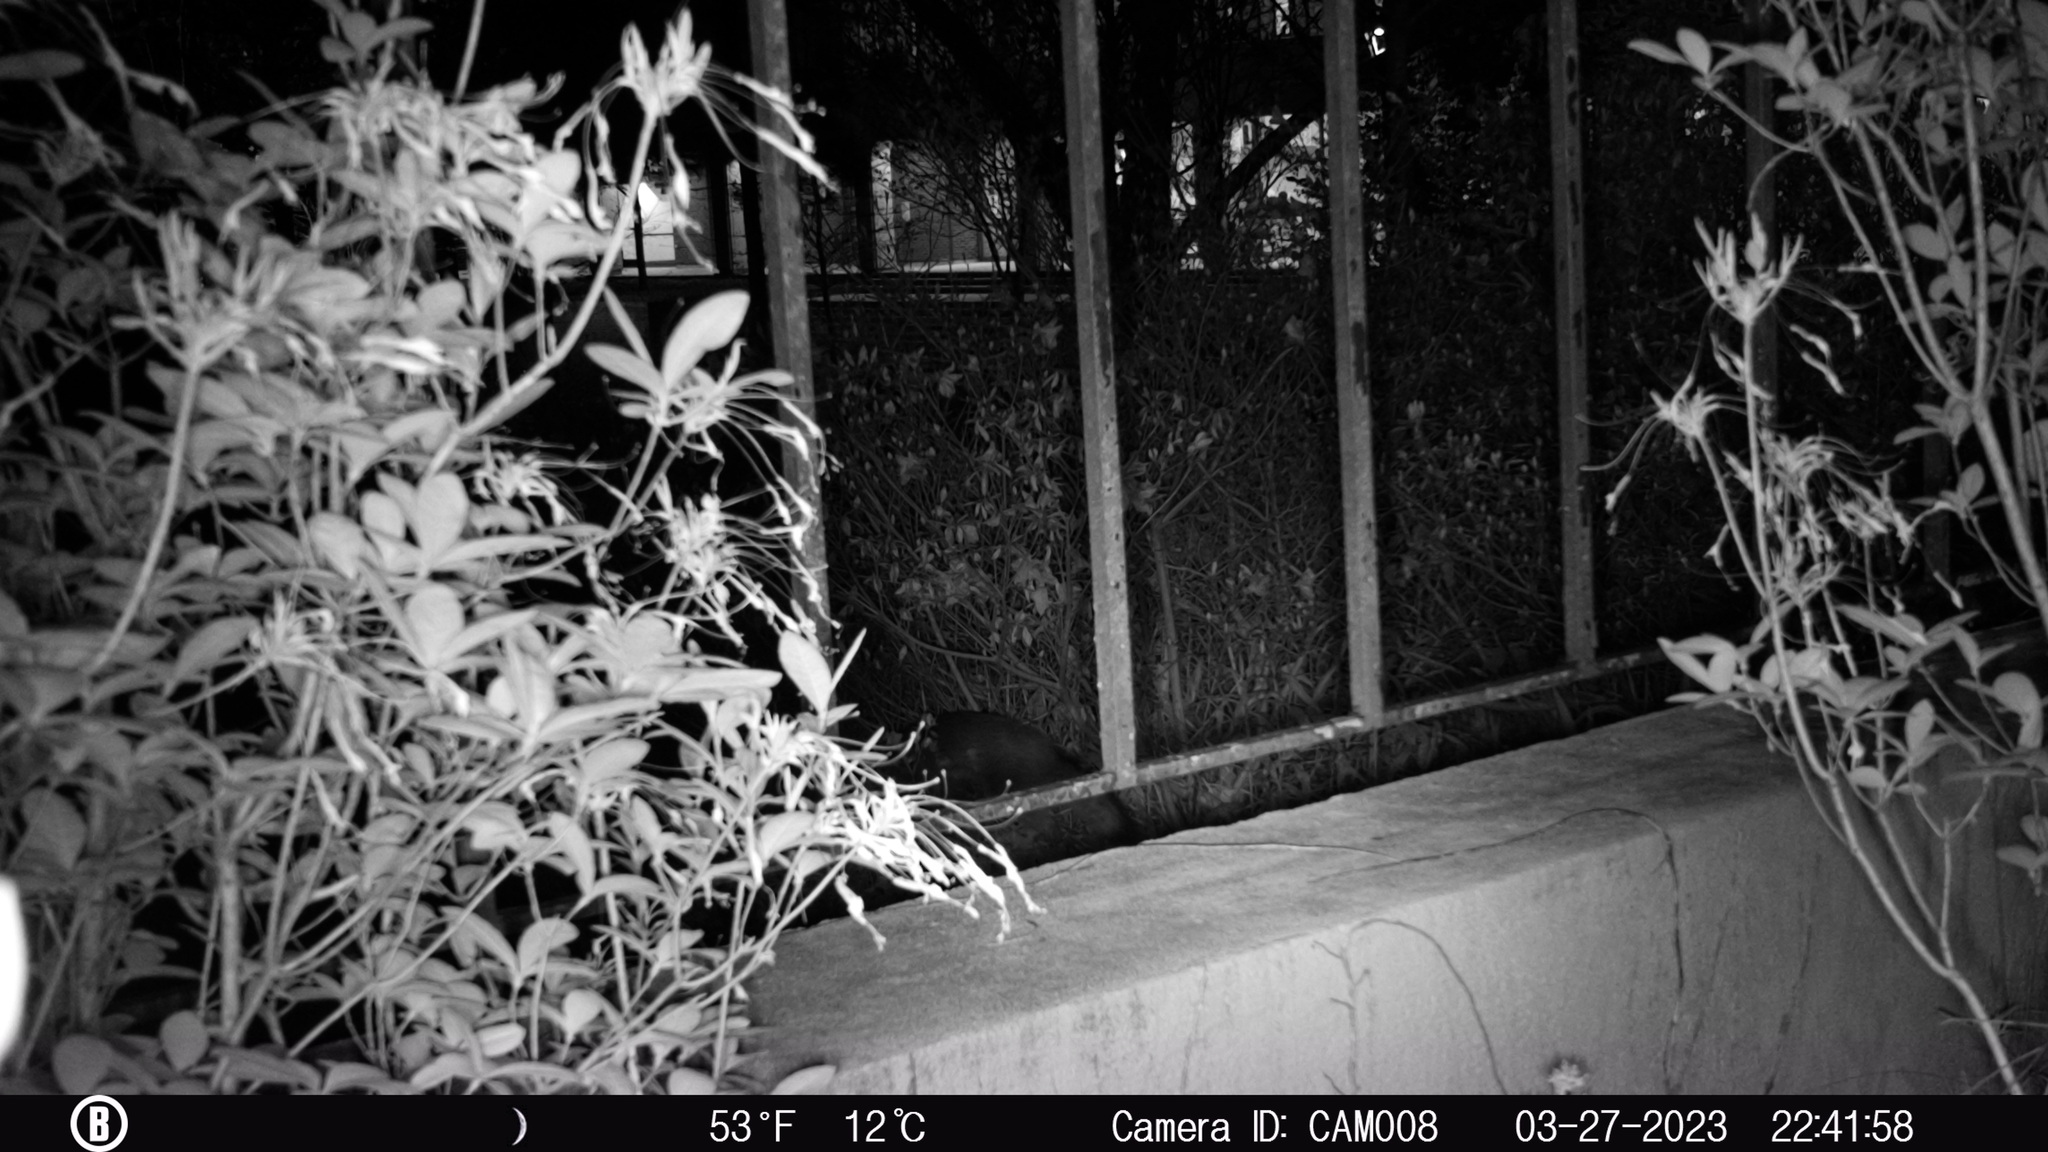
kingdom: Animalia
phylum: Chordata
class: Mammalia
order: Carnivora
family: Canidae
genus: Urocyon
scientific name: Urocyon cinereoargenteus
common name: Gray fox
